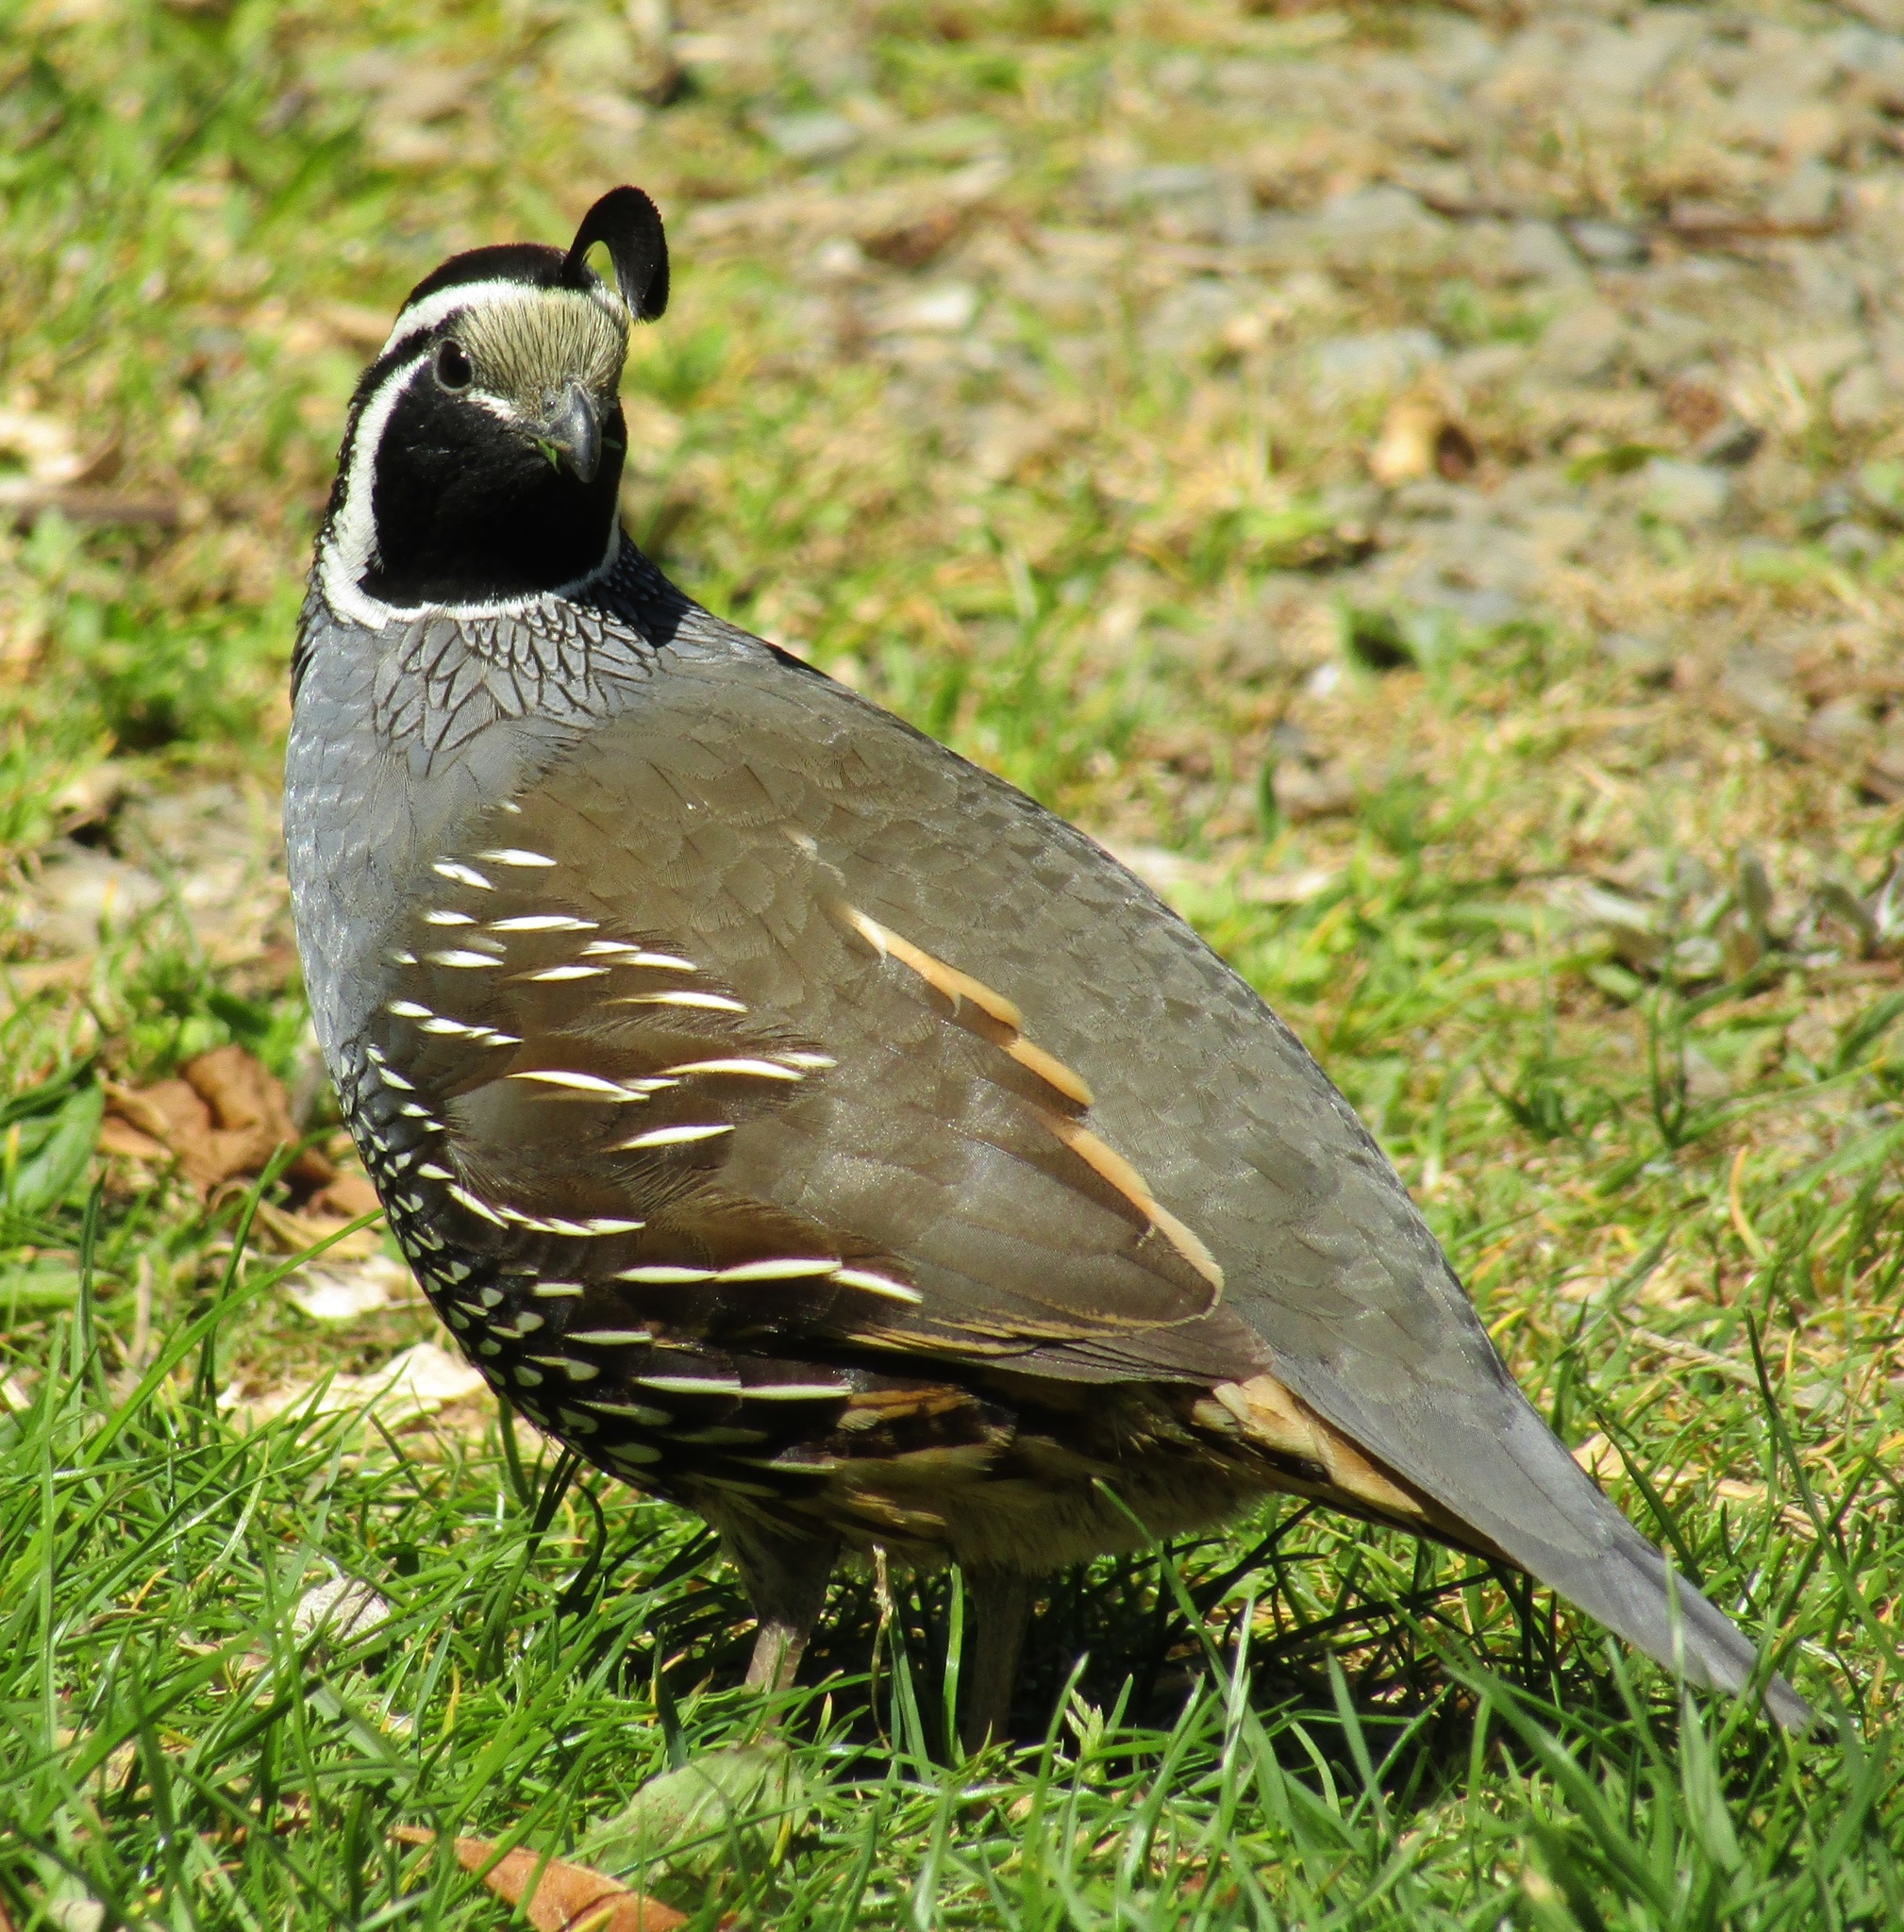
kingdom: Animalia
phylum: Chordata
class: Aves
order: Galliformes
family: Odontophoridae
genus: Callipepla
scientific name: Callipepla californica
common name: California quail
